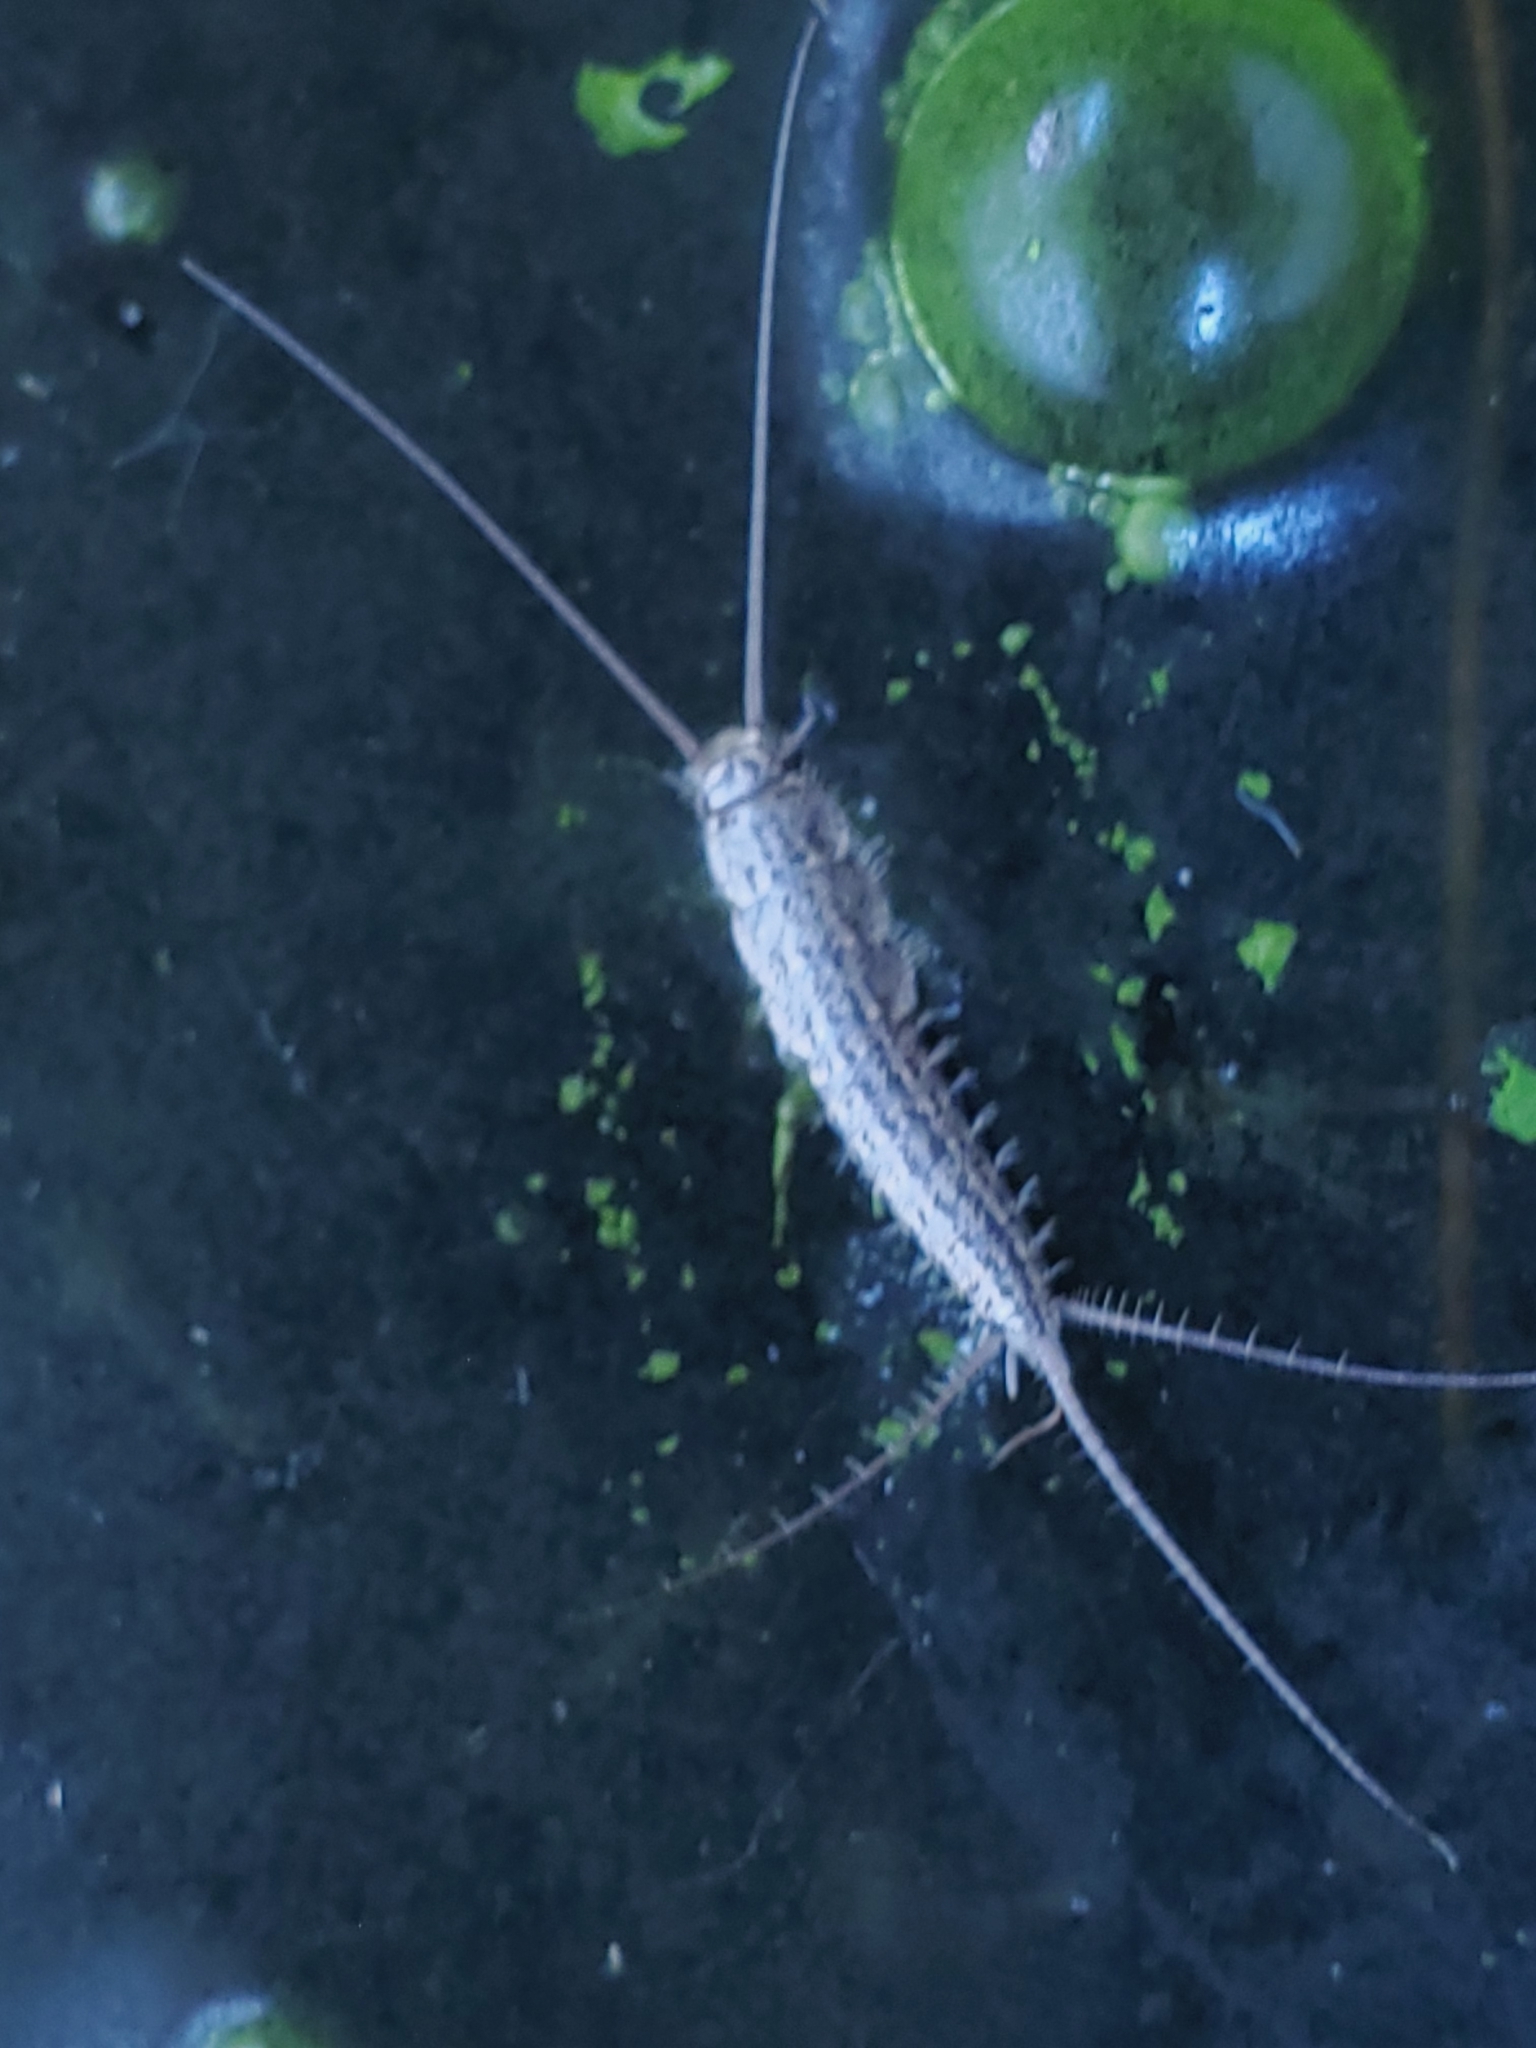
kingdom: Animalia
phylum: Arthropoda
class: Insecta
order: Zygentoma
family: Lepismatidae
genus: Ctenolepisma
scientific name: Ctenolepisma lineata
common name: Four-lined silverfish
